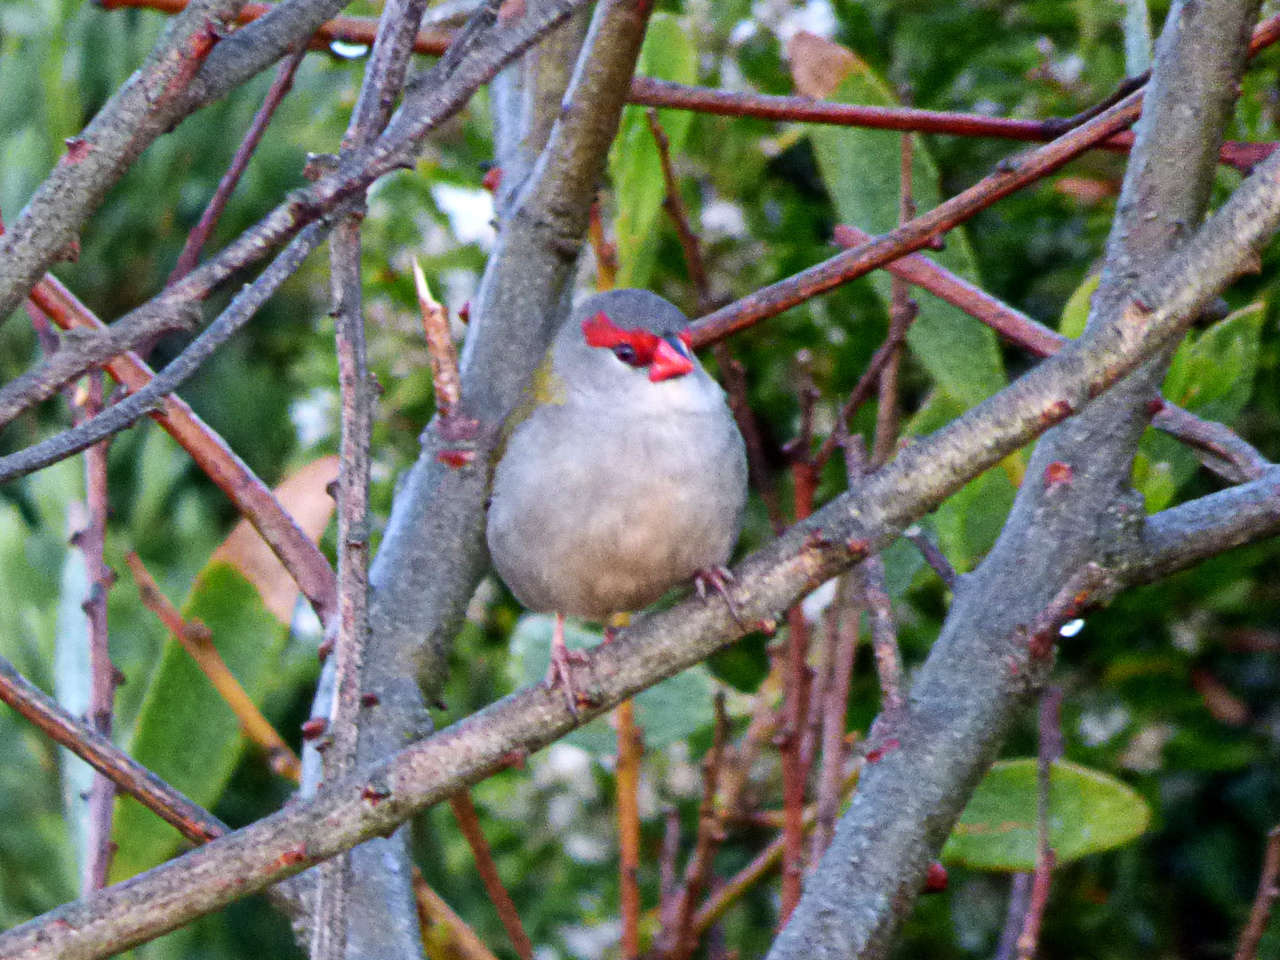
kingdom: Animalia
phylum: Chordata
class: Aves
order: Passeriformes
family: Estrildidae
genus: Neochmia
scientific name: Neochmia temporalis
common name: Red-browed finch
